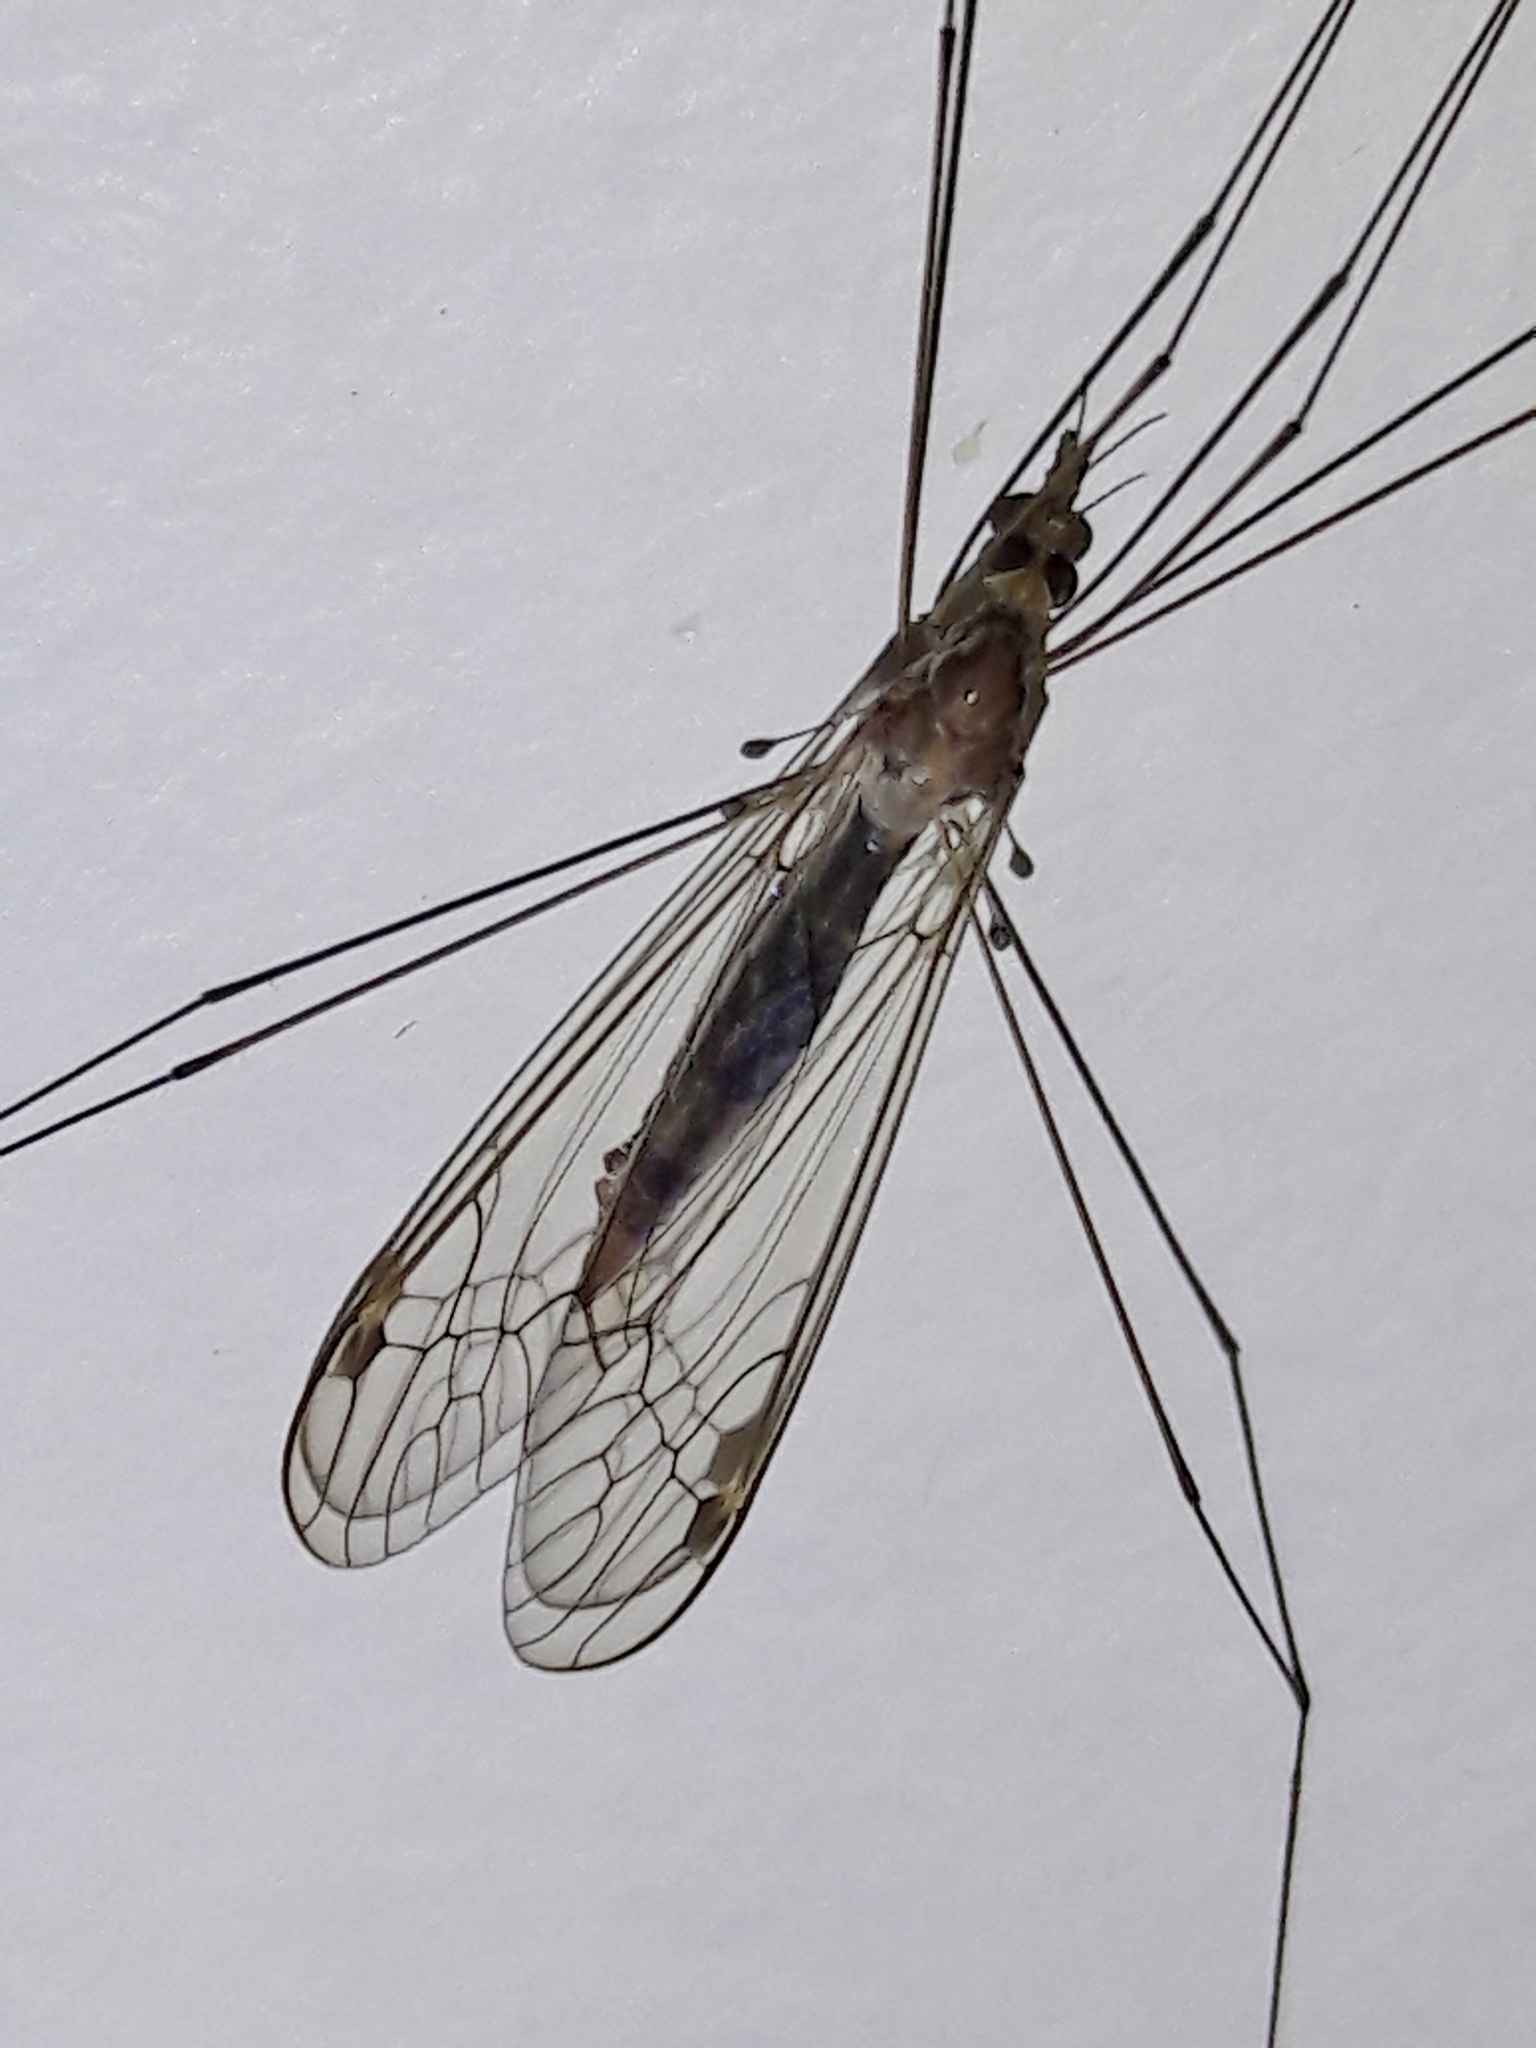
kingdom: Animalia
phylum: Arthropoda
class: Insecta
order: Diptera
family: Tipulidae
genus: Maekistocera
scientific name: Maekistocera longipennis
